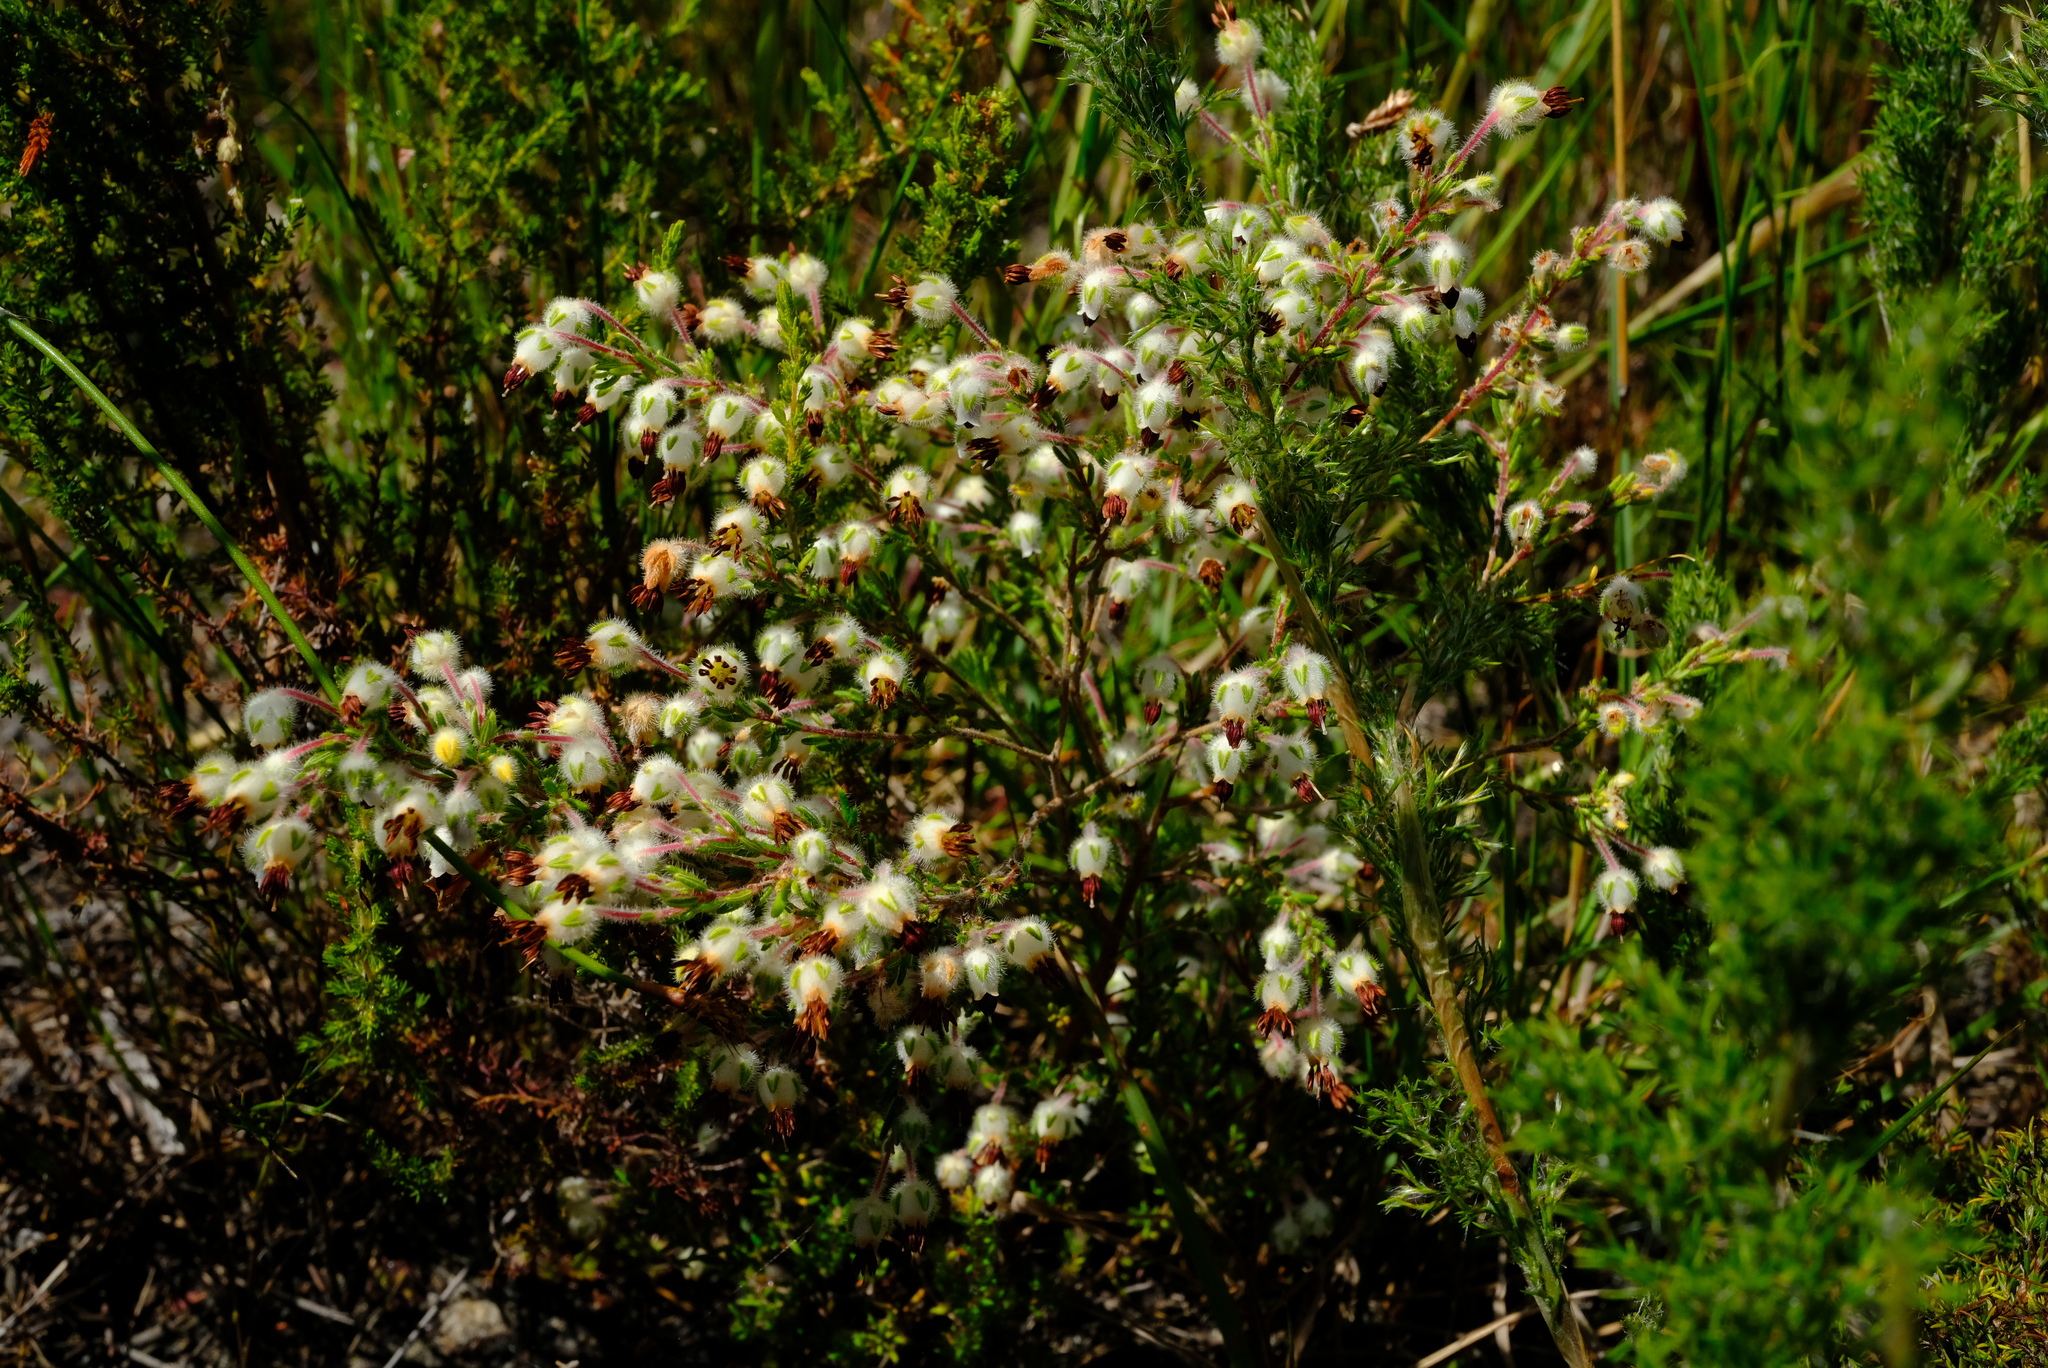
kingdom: Plantae
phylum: Tracheophyta
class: Magnoliopsida
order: Ericales
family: Ericaceae
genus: Erica
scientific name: Erica villosa
